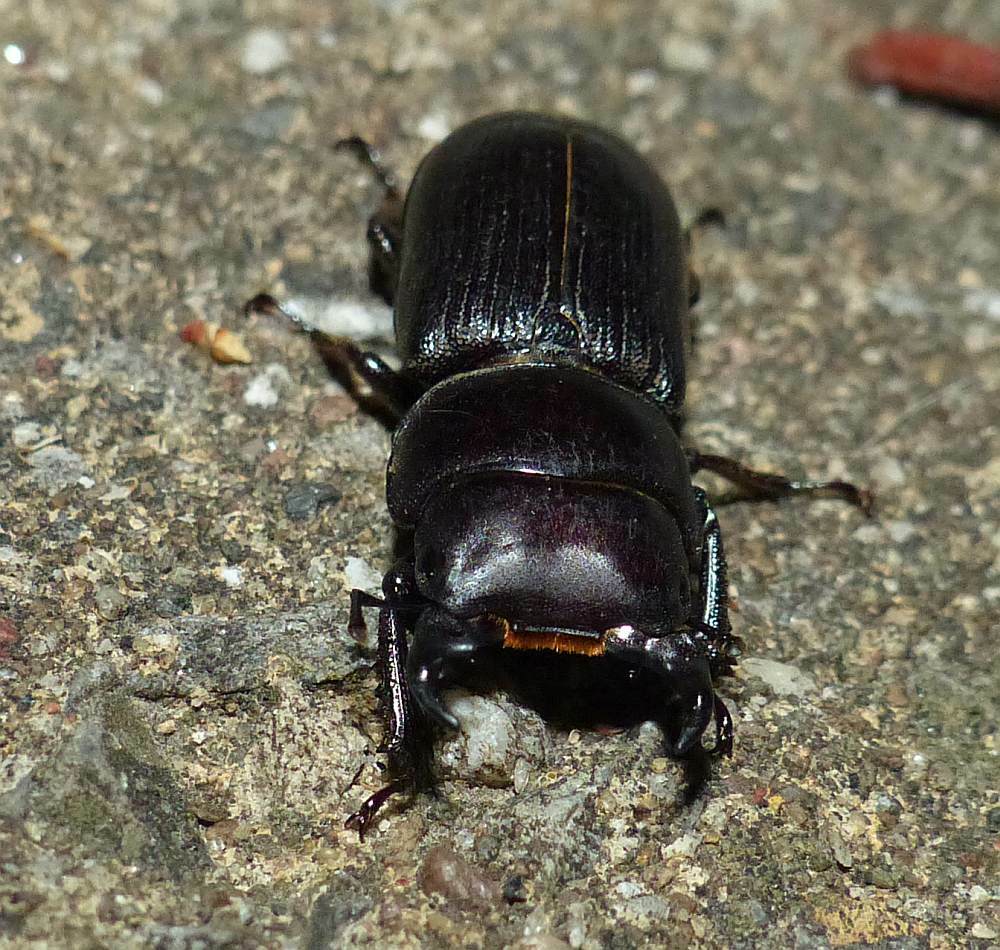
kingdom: Animalia
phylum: Arthropoda
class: Insecta
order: Coleoptera
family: Lucanidae
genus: Dorcus
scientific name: Dorcus parallelus
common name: Antelope beetle
